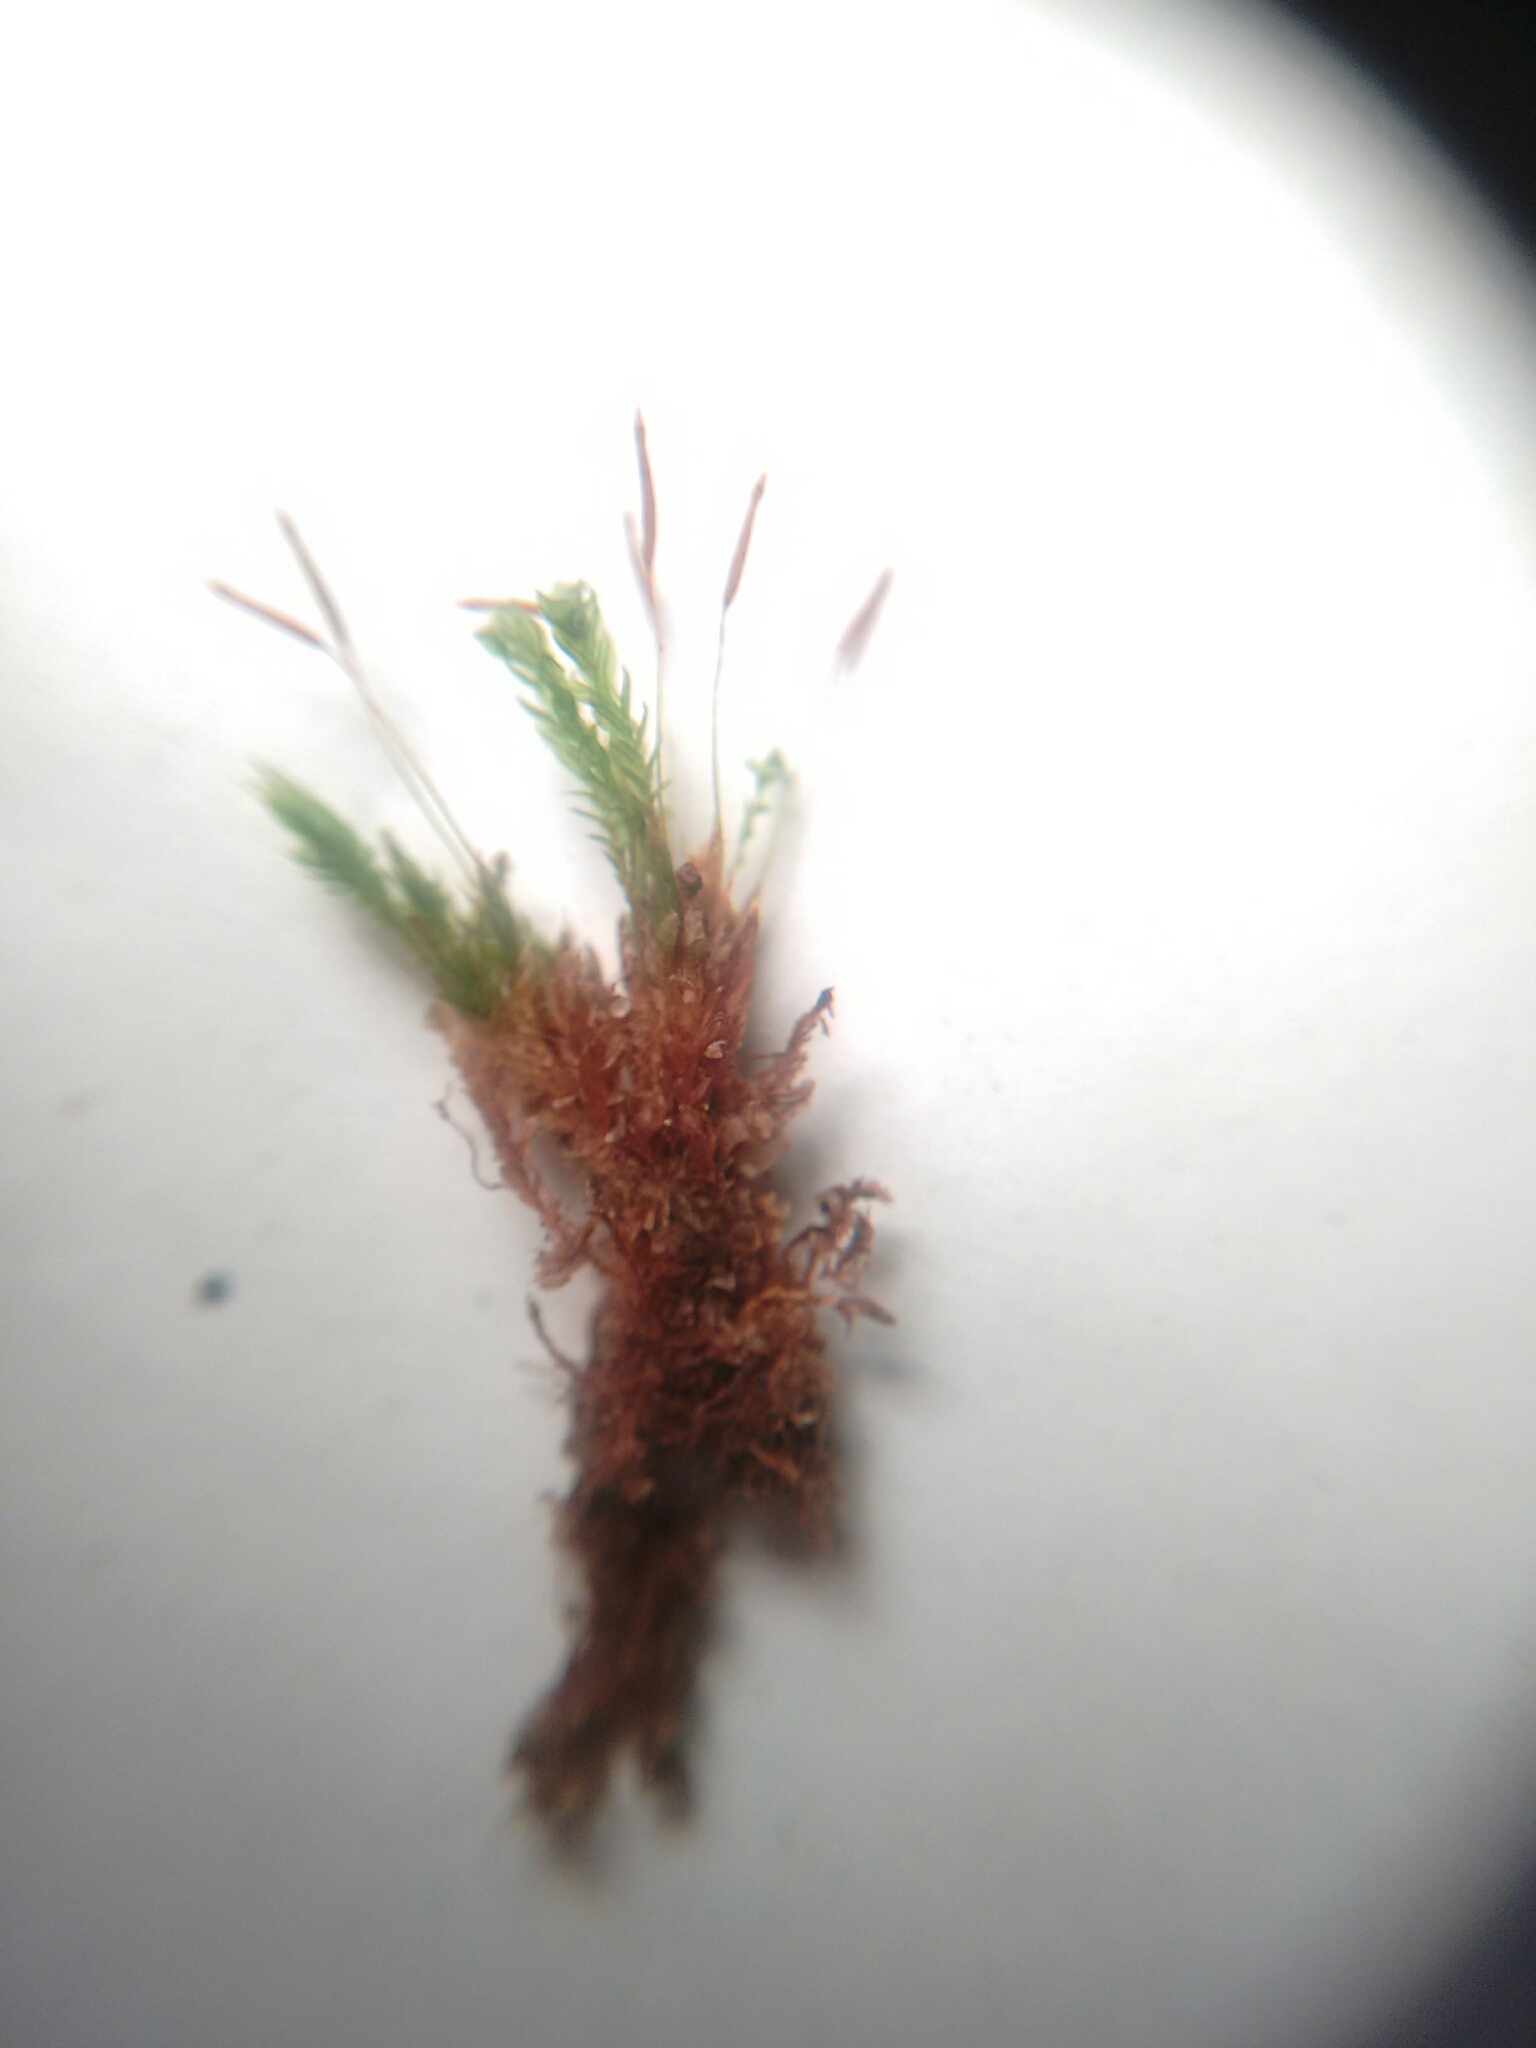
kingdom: Plantae
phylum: Bryophyta
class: Polytrichopsida
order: Tetraphidales
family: Tetraphidaceae
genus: Tetraphis
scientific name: Tetraphis pellucida
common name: Common four-toothed moss
